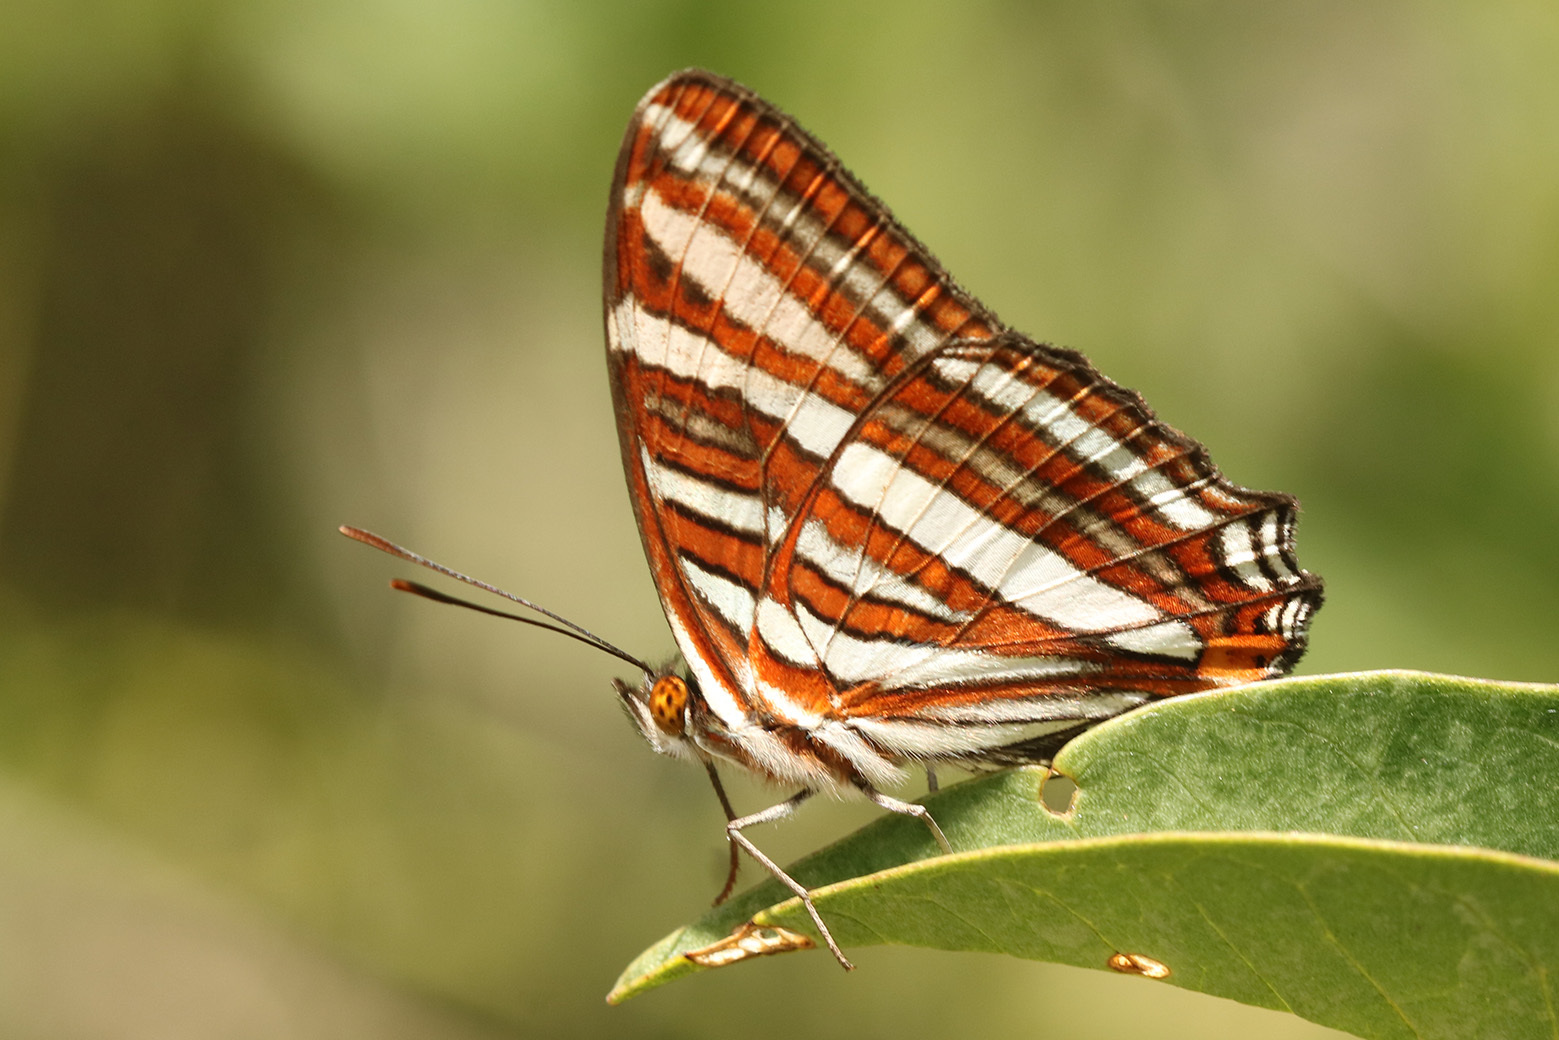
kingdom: Animalia
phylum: Arthropoda
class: Insecta
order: Lepidoptera
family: Nymphalidae
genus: Limenitis
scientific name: Limenitis syma
